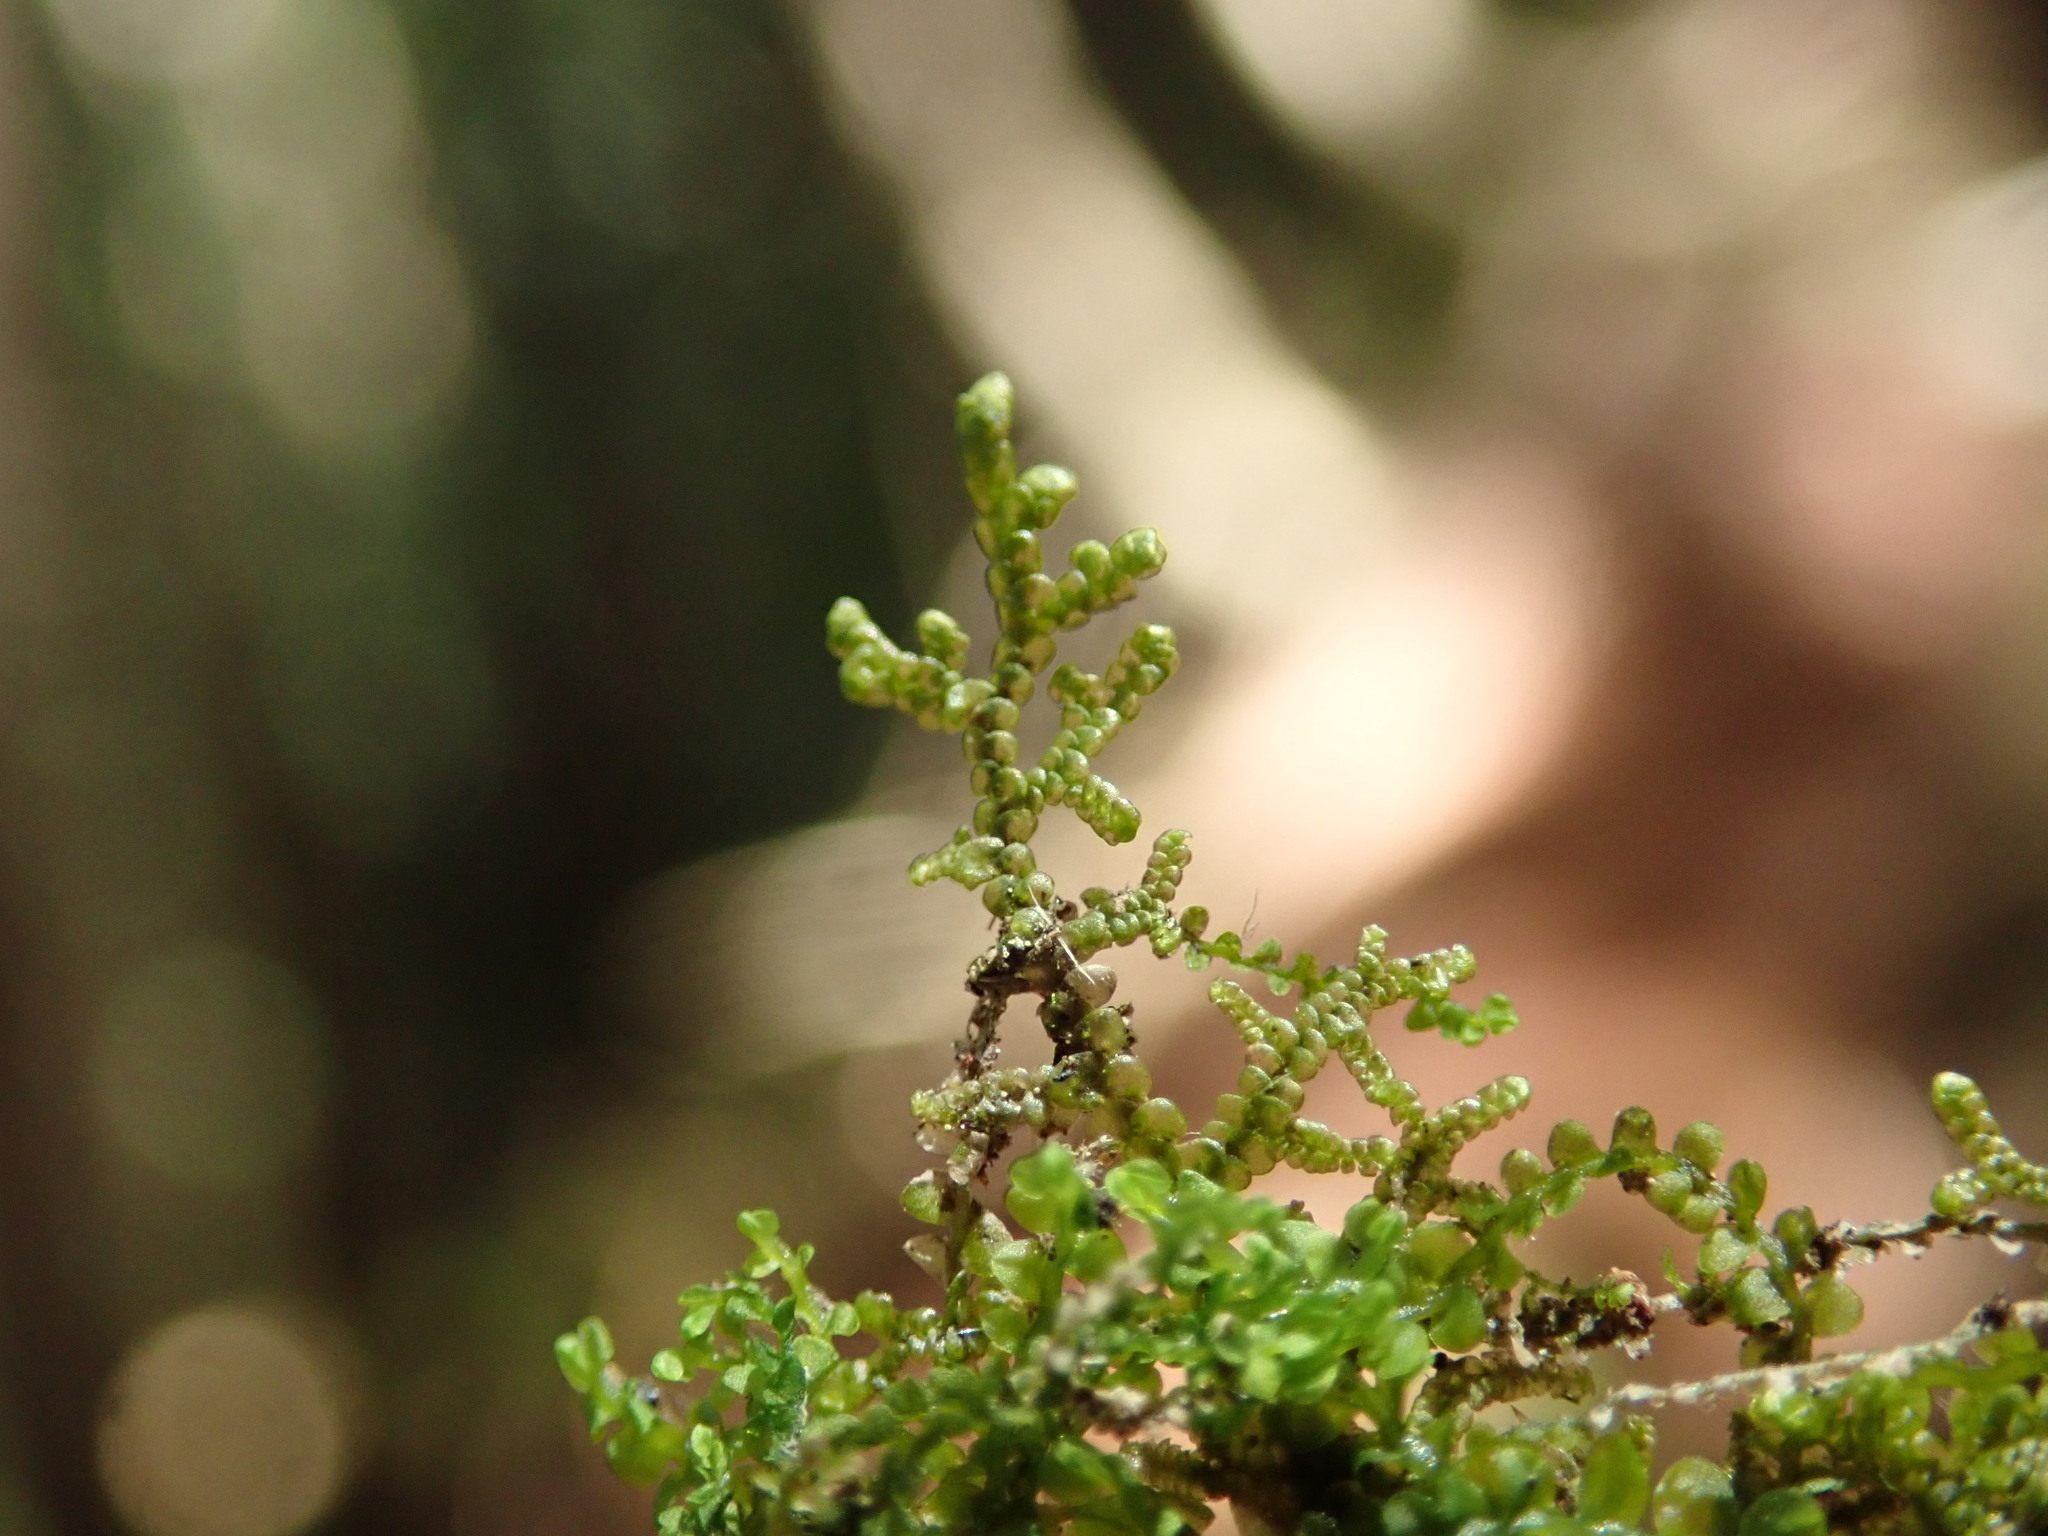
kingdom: Plantae
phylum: Marchantiophyta
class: Jungermanniopsida
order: Porellales
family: Frullaniaceae
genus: Frullania
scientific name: Frullania nisquallensis
